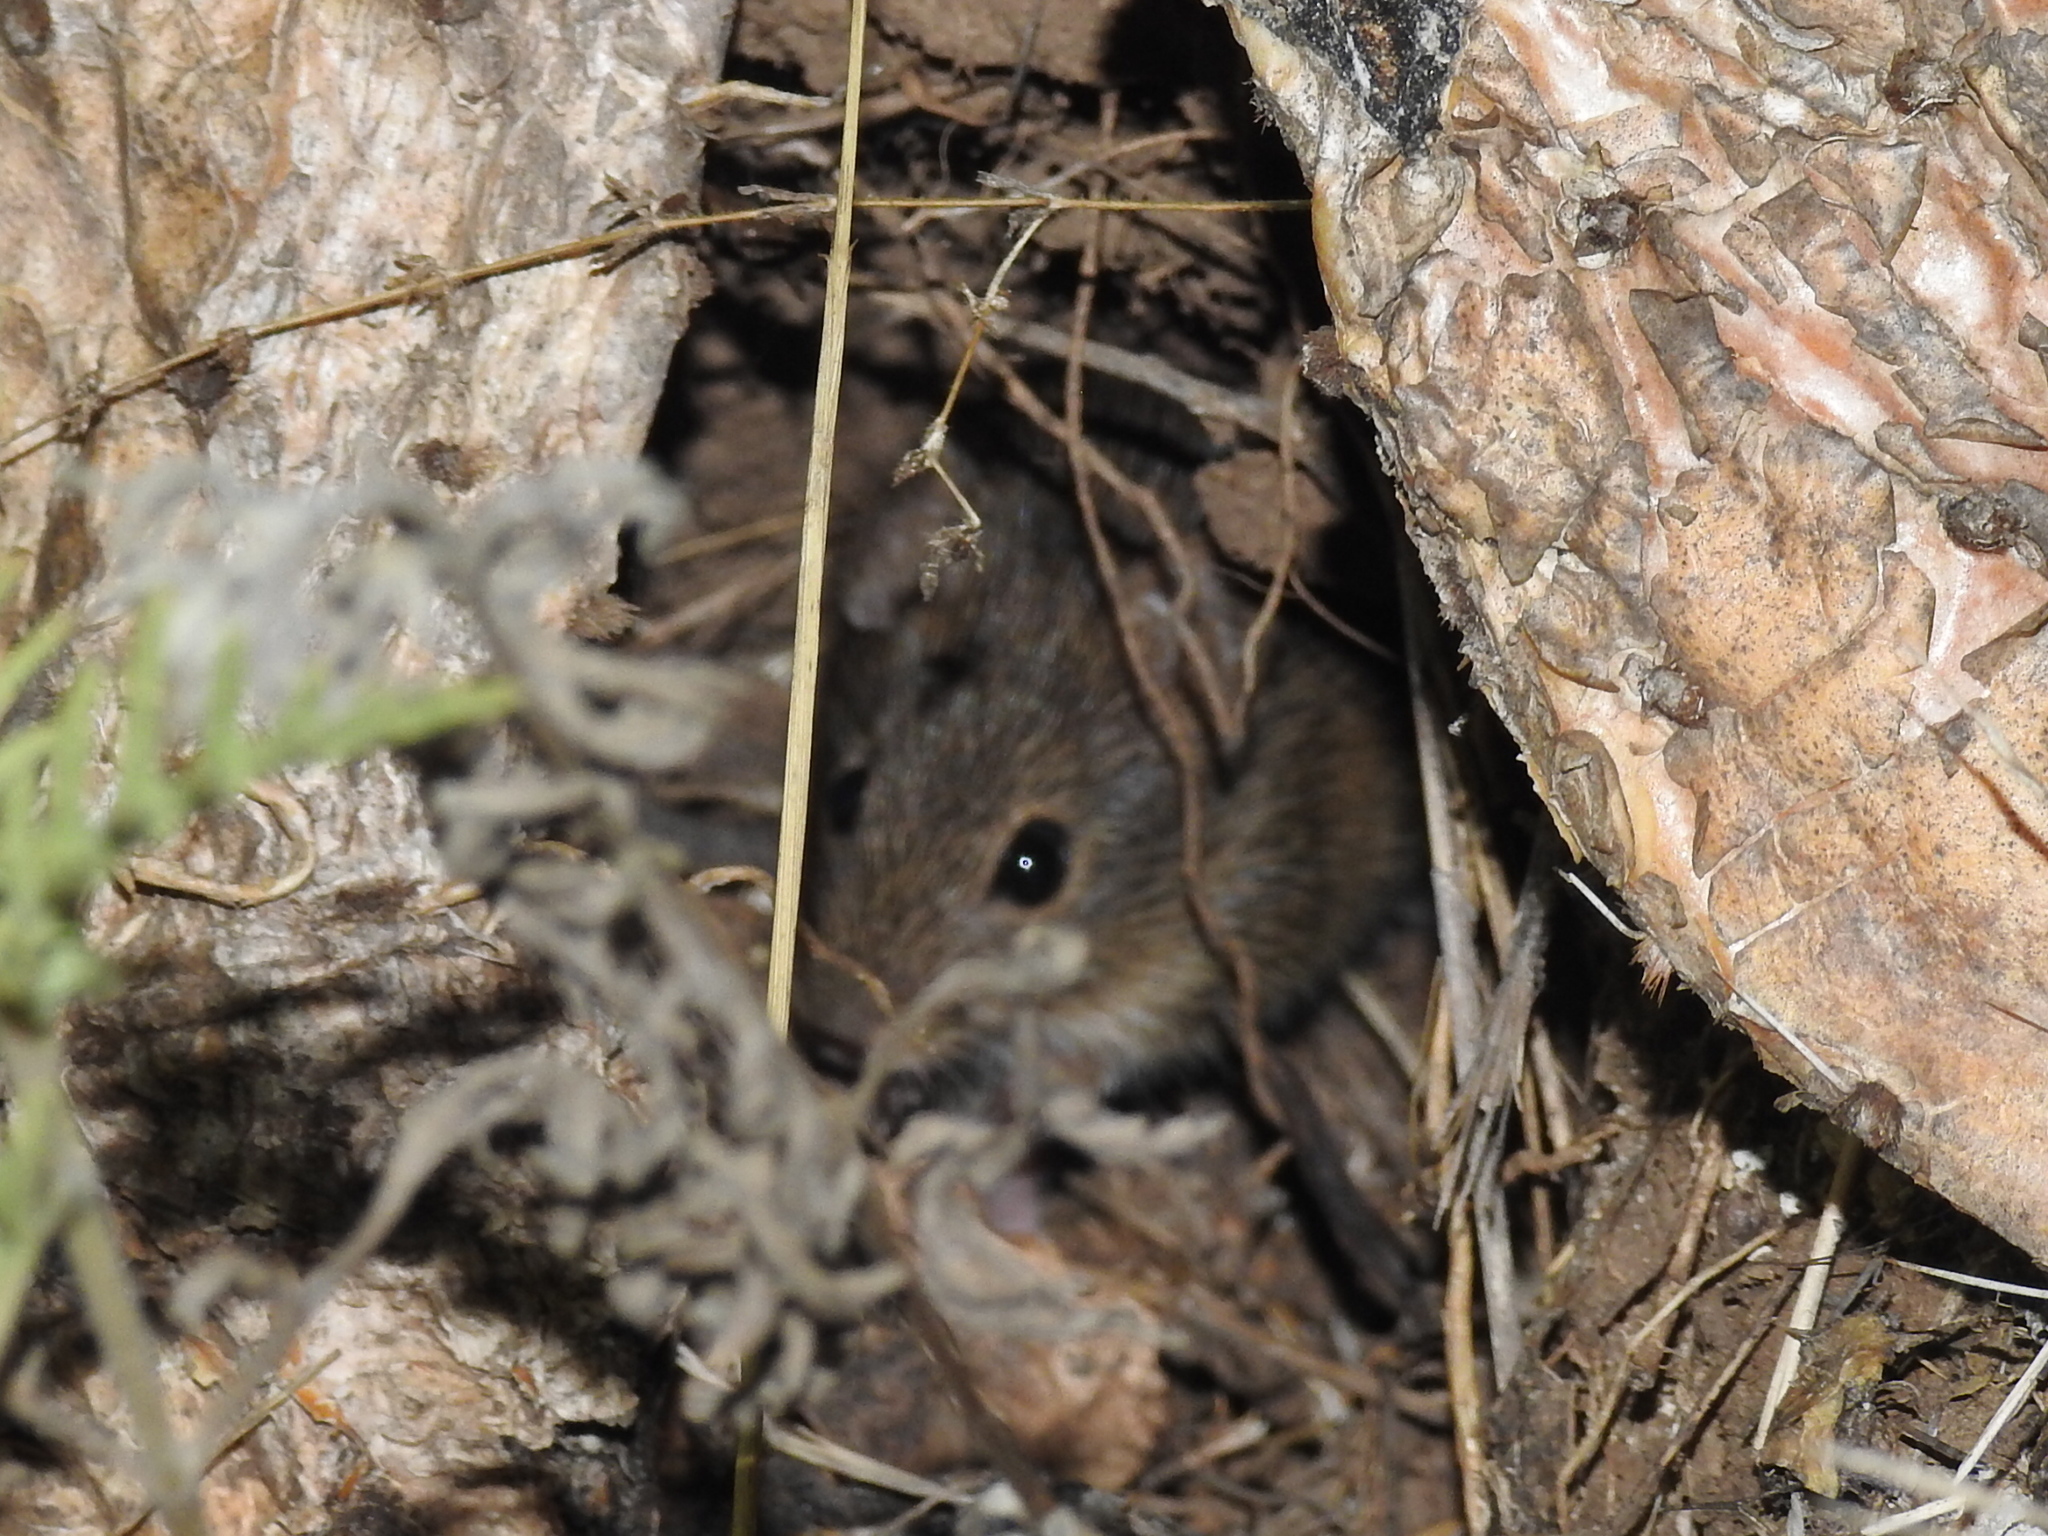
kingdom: Animalia
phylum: Chordata
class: Mammalia
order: Rodentia
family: Cricetidae
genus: Sigmodon
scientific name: Sigmodon hispidus
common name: Hispid cotton rat
